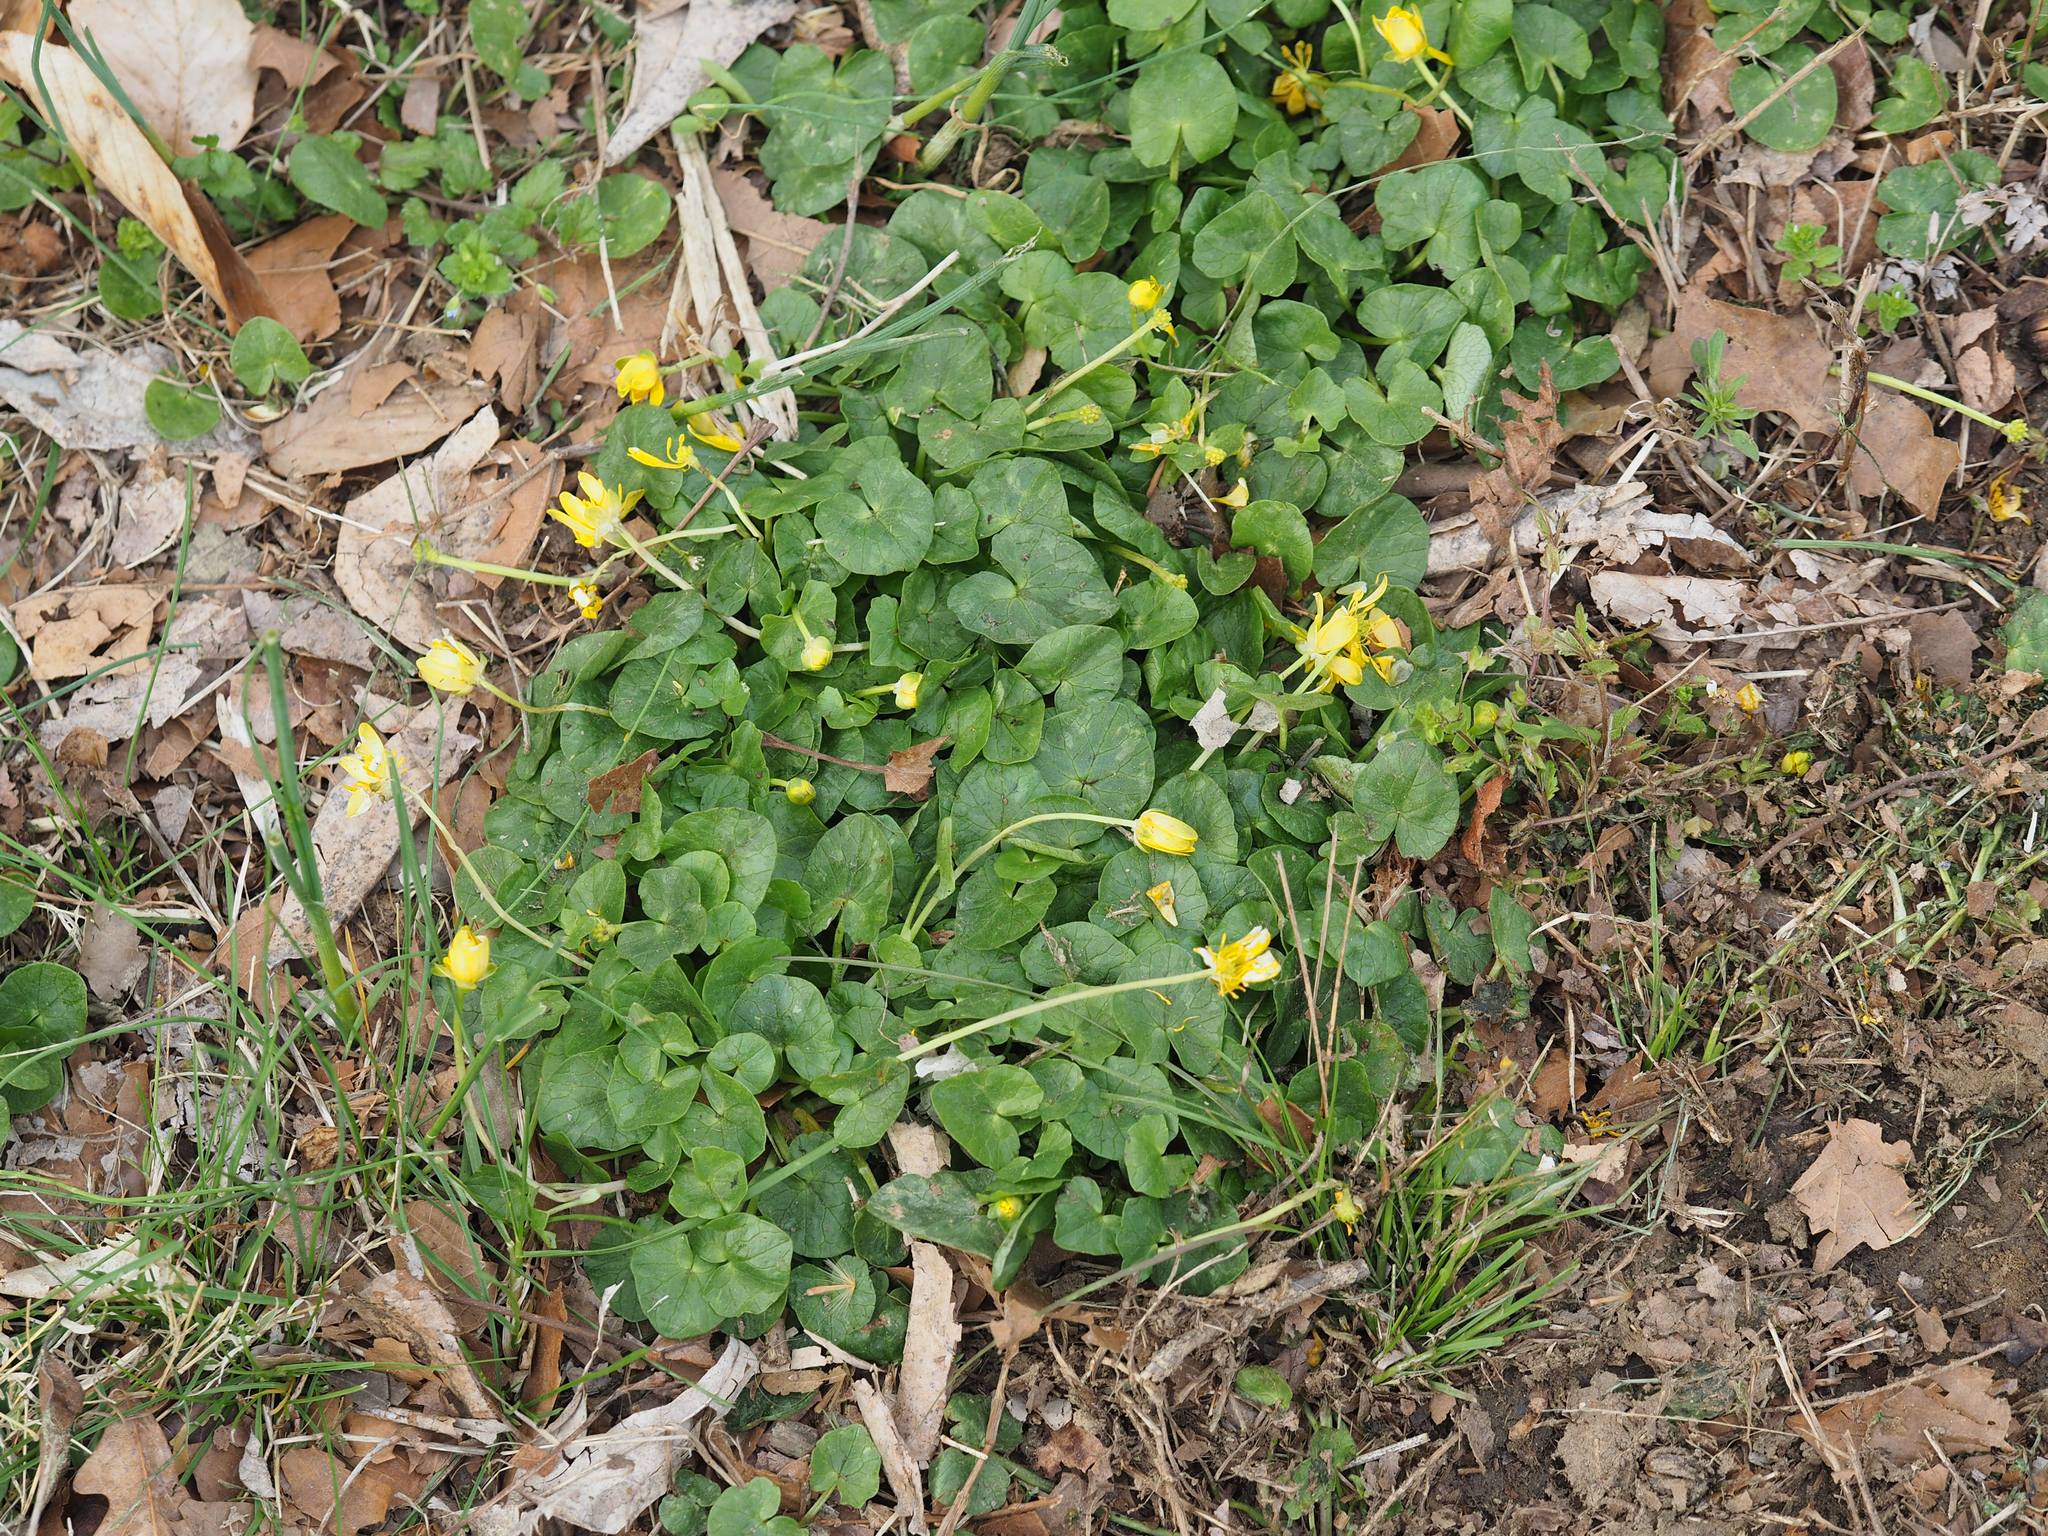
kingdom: Plantae
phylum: Tracheophyta
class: Magnoliopsida
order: Ranunculales
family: Ranunculaceae
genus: Ficaria
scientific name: Ficaria verna
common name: Lesser celandine
